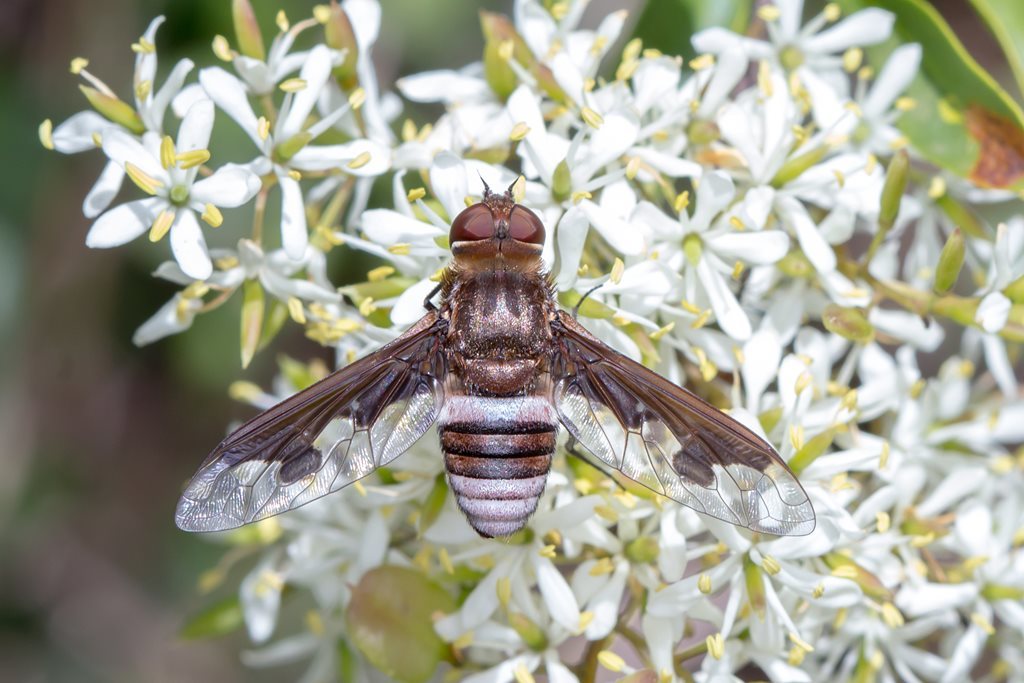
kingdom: Animalia
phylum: Arthropoda
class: Insecta
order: Diptera
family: Bombyliidae
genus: Ligyra
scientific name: Ligyra sinuatifascia
